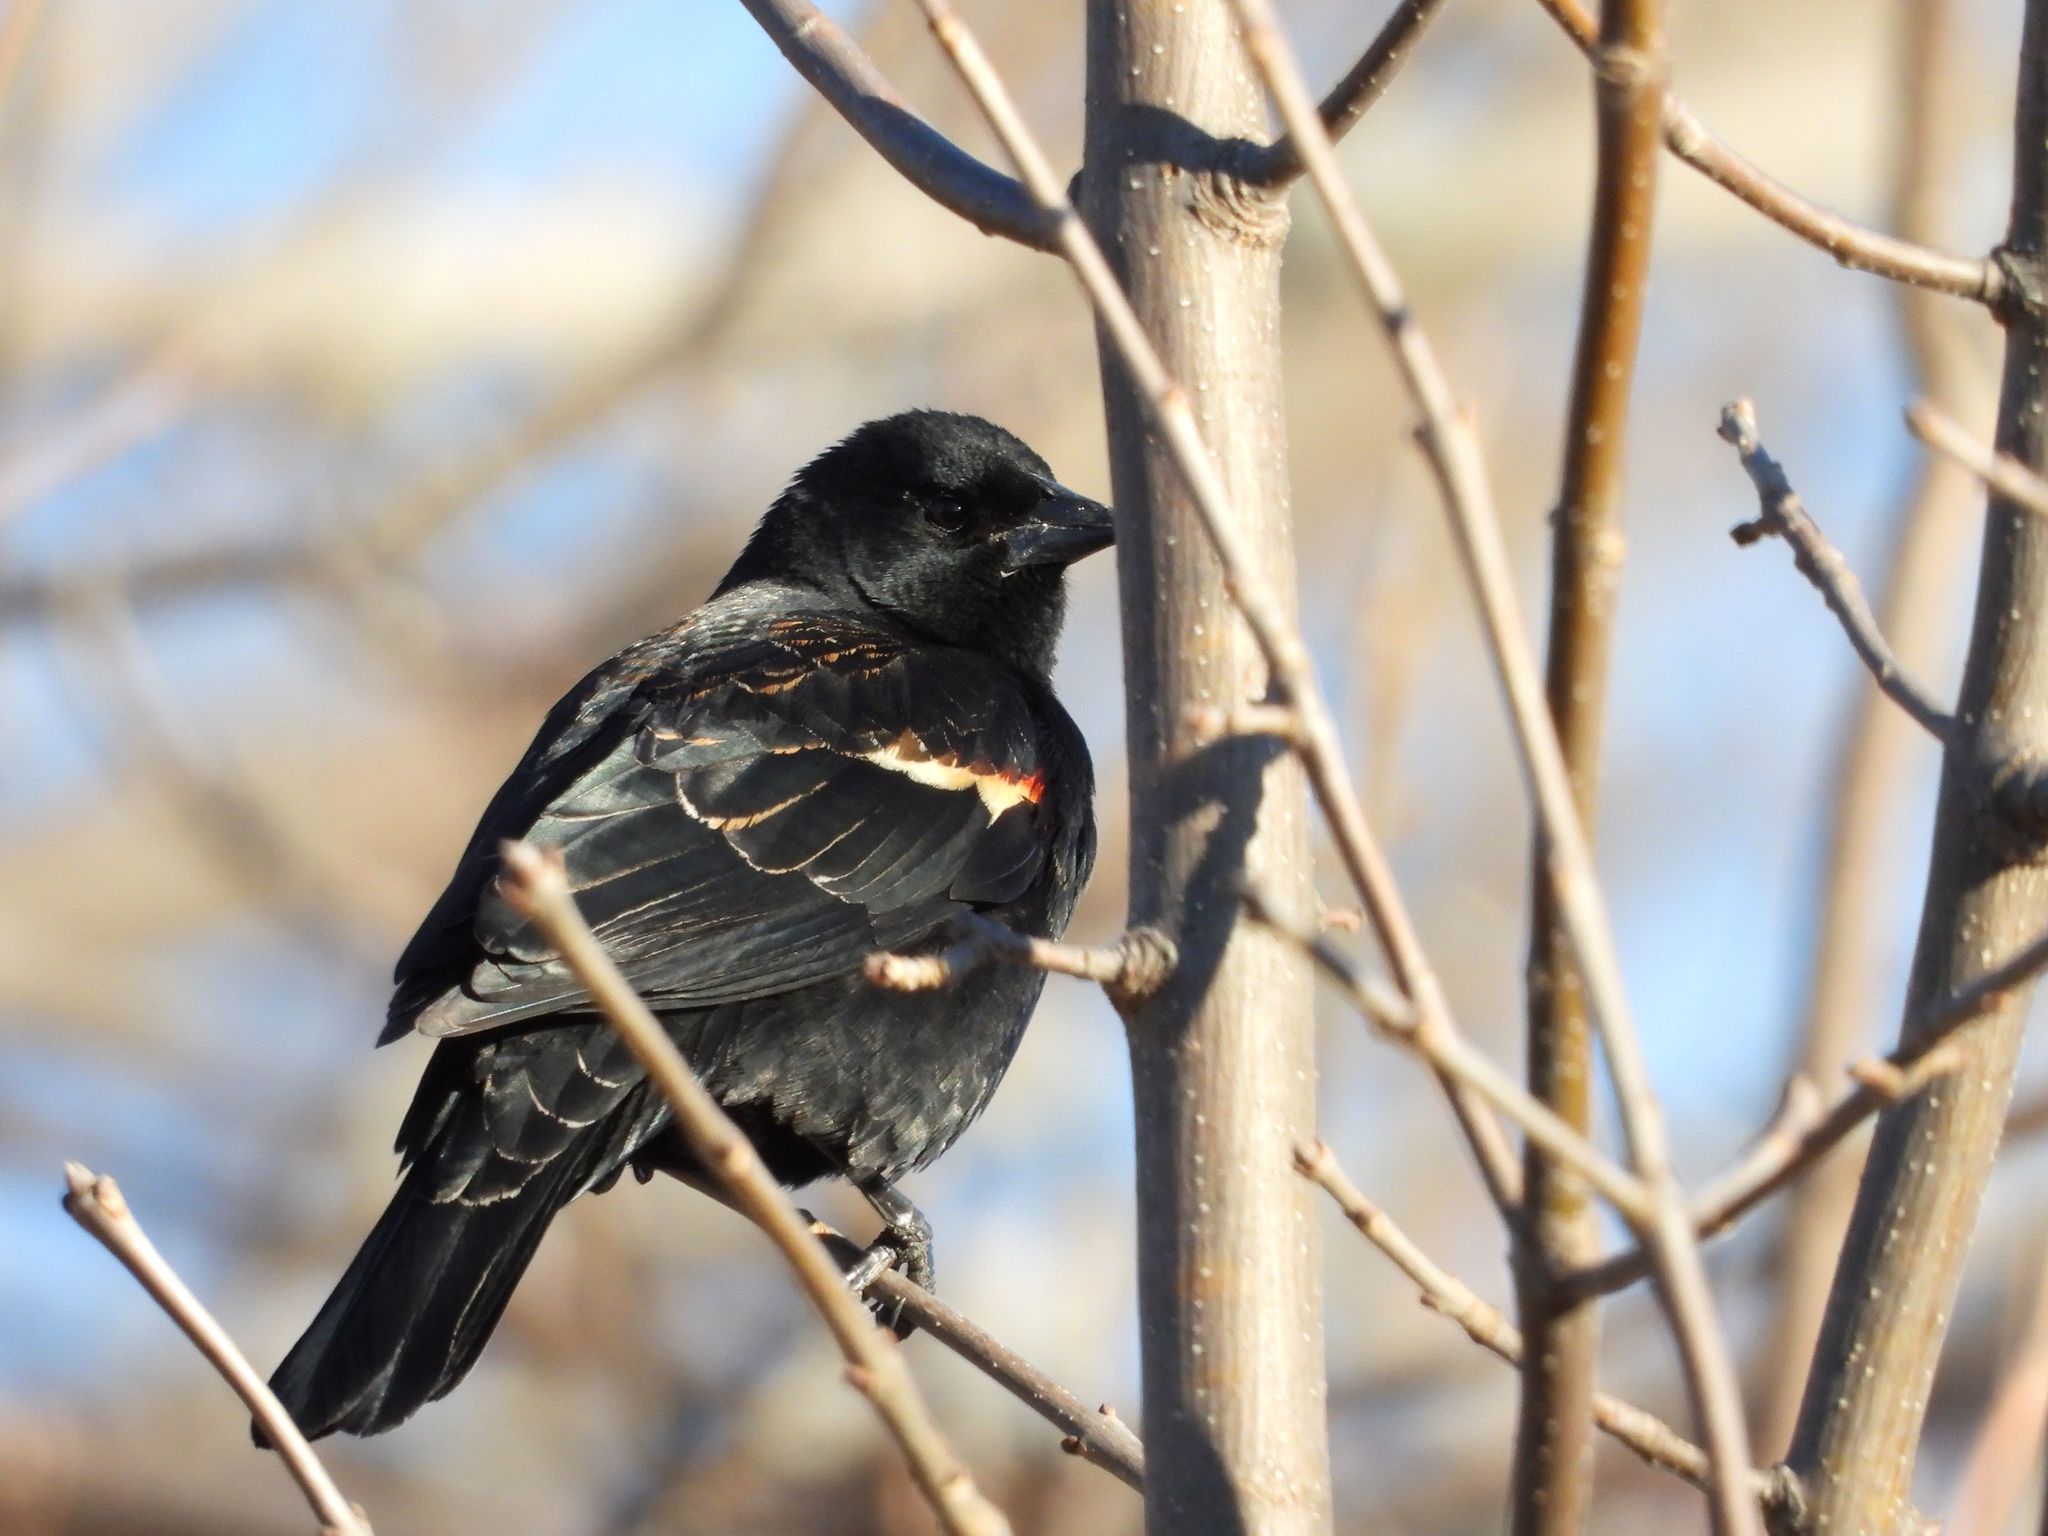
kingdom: Animalia
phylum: Chordata
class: Aves
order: Passeriformes
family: Icteridae
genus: Agelaius
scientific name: Agelaius phoeniceus
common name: Red-winged blackbird
